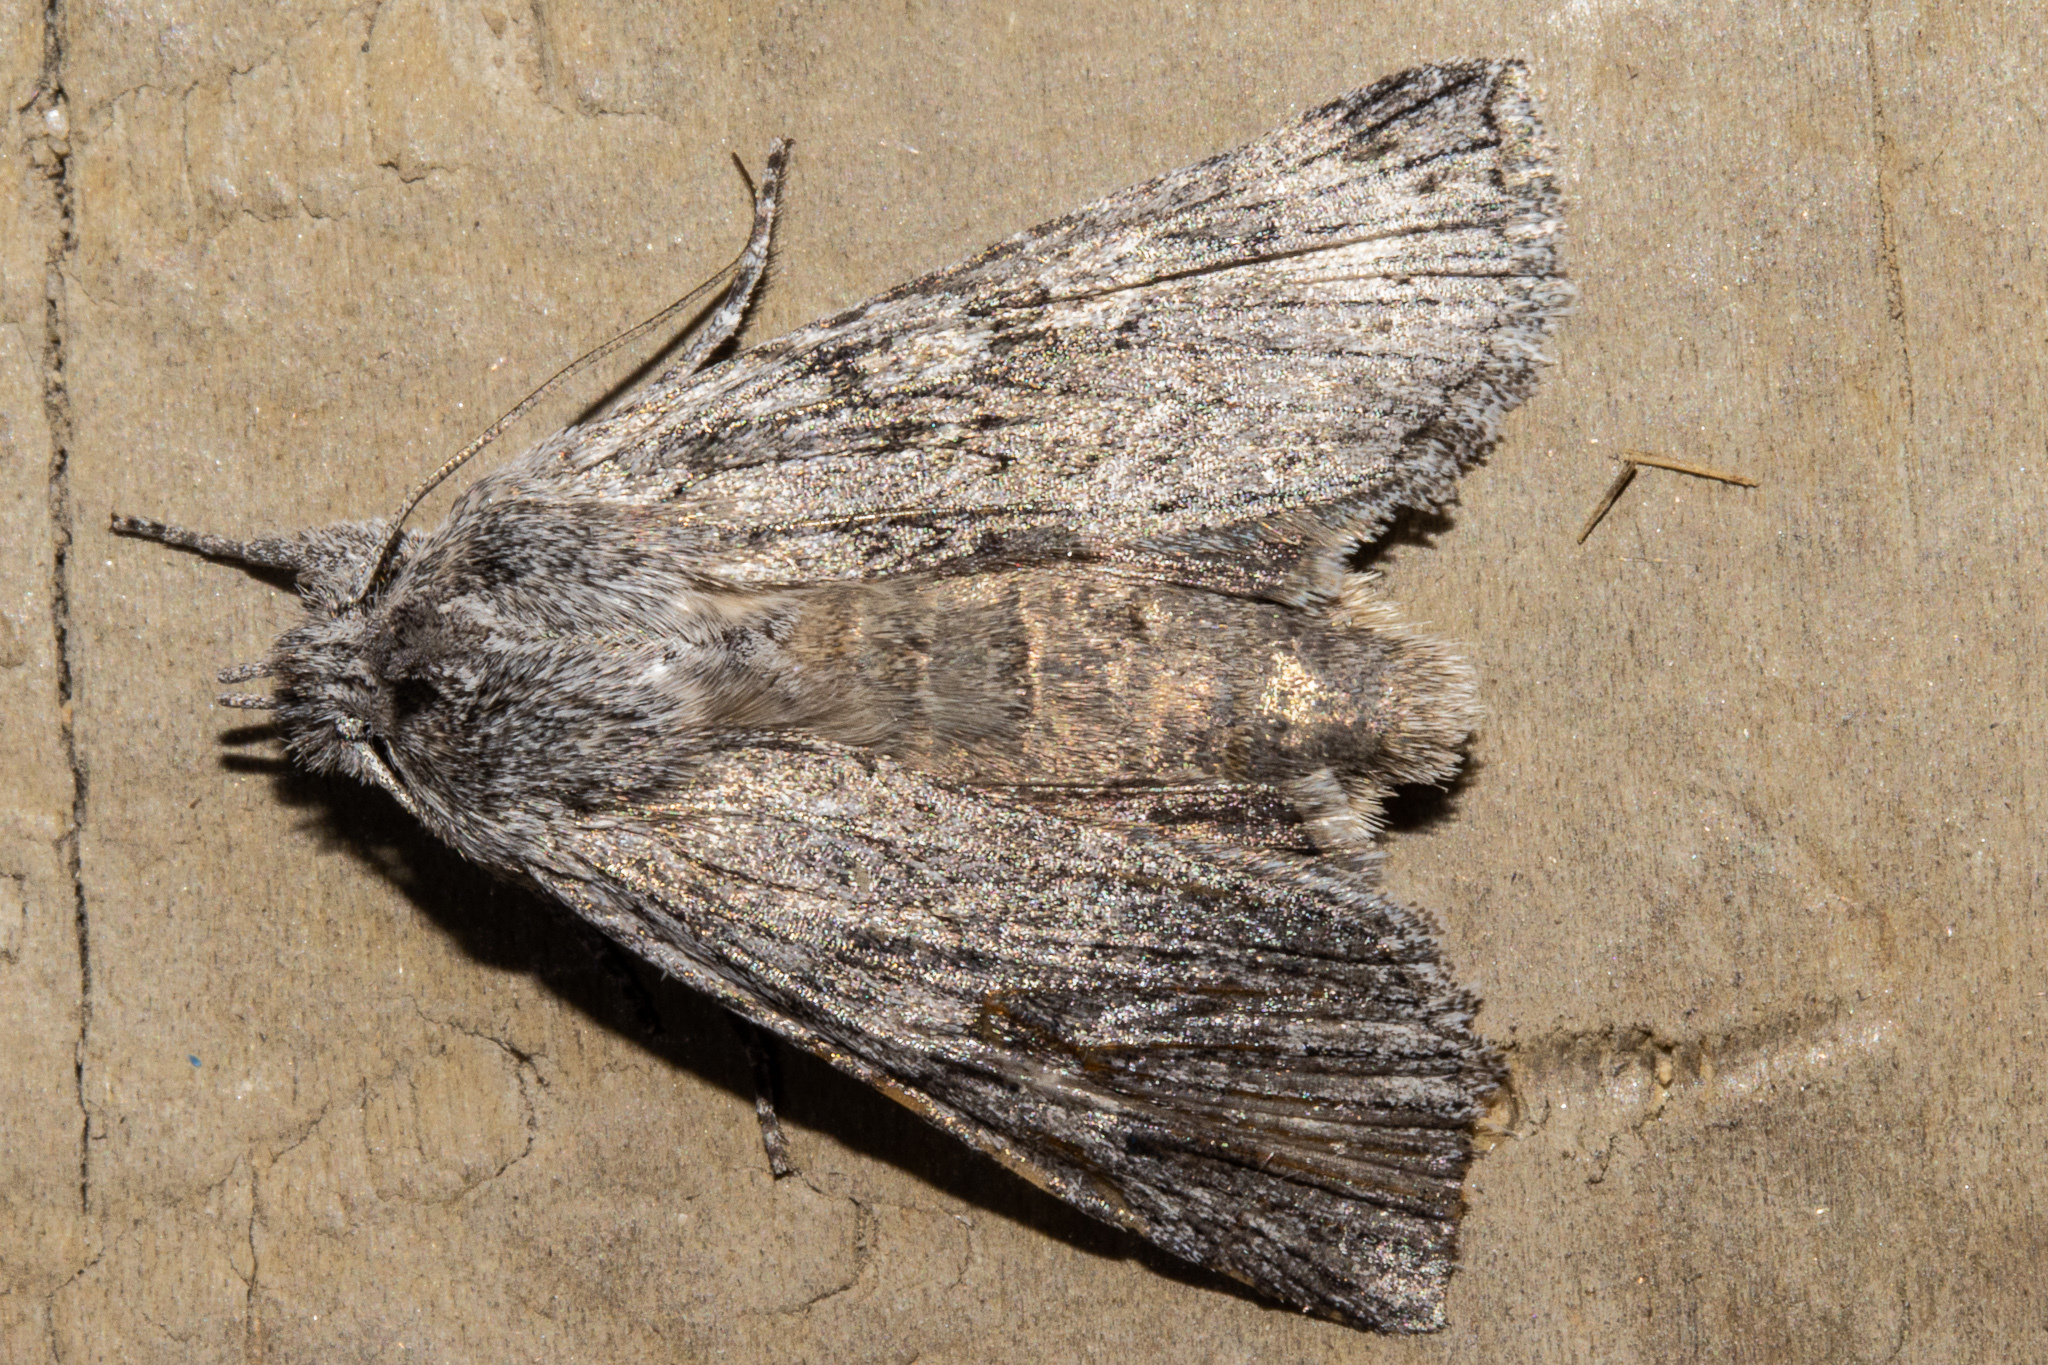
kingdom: Animalia
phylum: Arthropoda
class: Insecta
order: Lepidoptera
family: Noctuidae
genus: Physetica
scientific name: Physetica phricias
